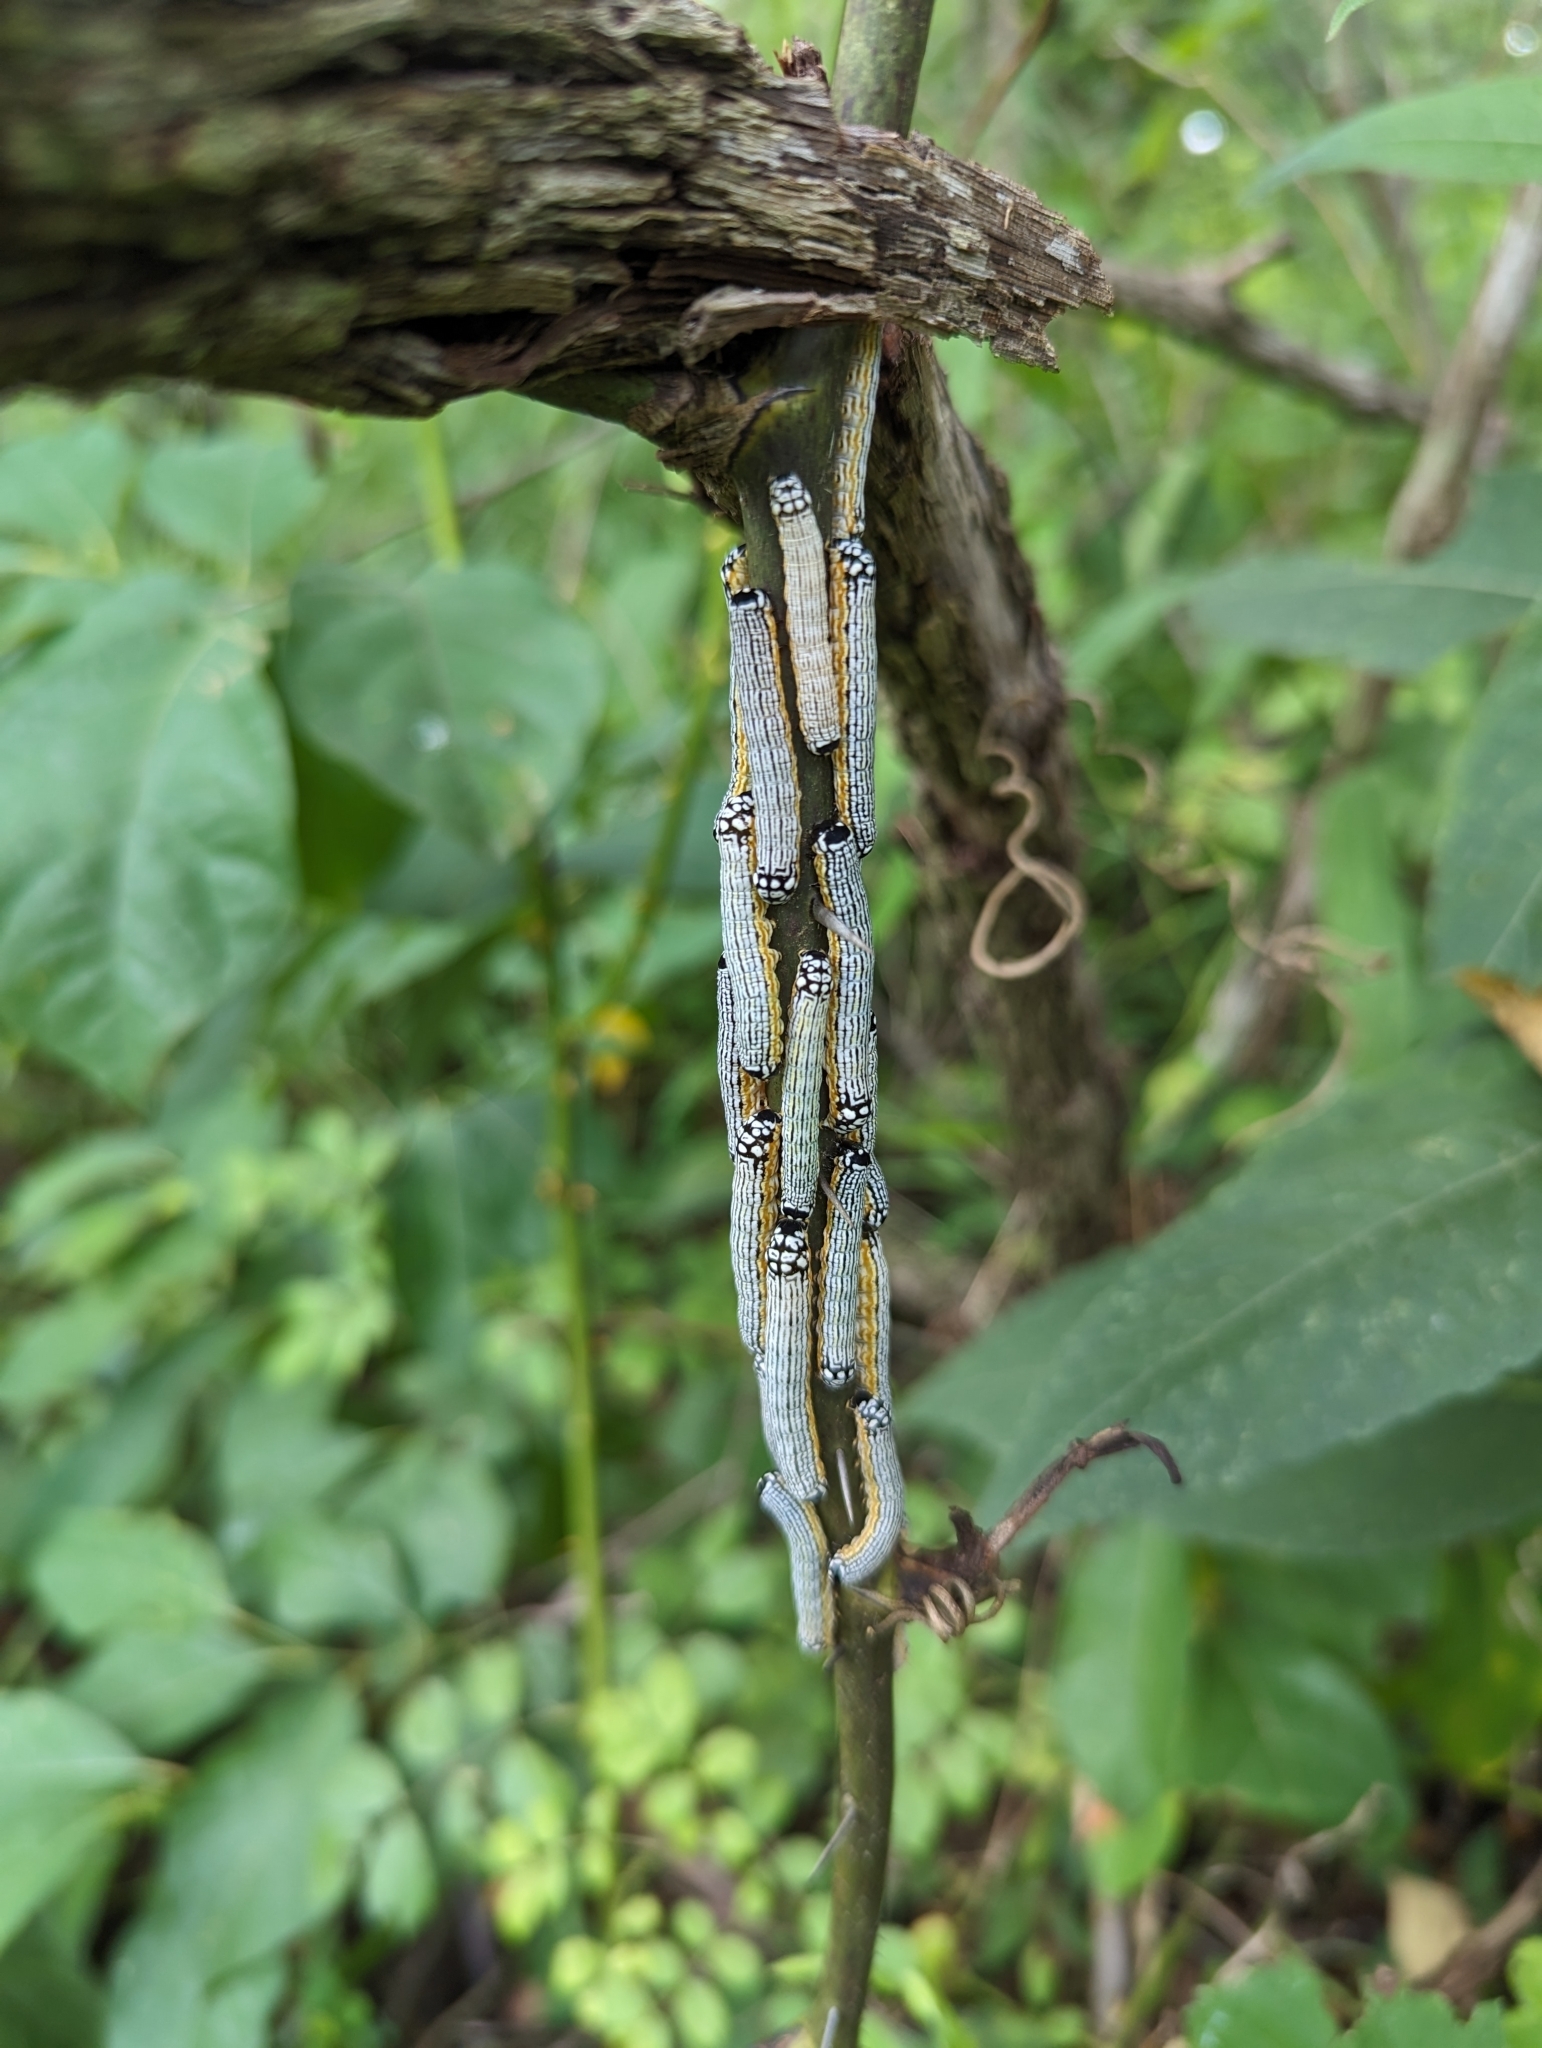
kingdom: Animalia
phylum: Arthropoda
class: Insecta
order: Lepidoptera
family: Noctuidae
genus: Phosphila
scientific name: Phosphila turbulenta
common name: Turbulent phosphila moth
